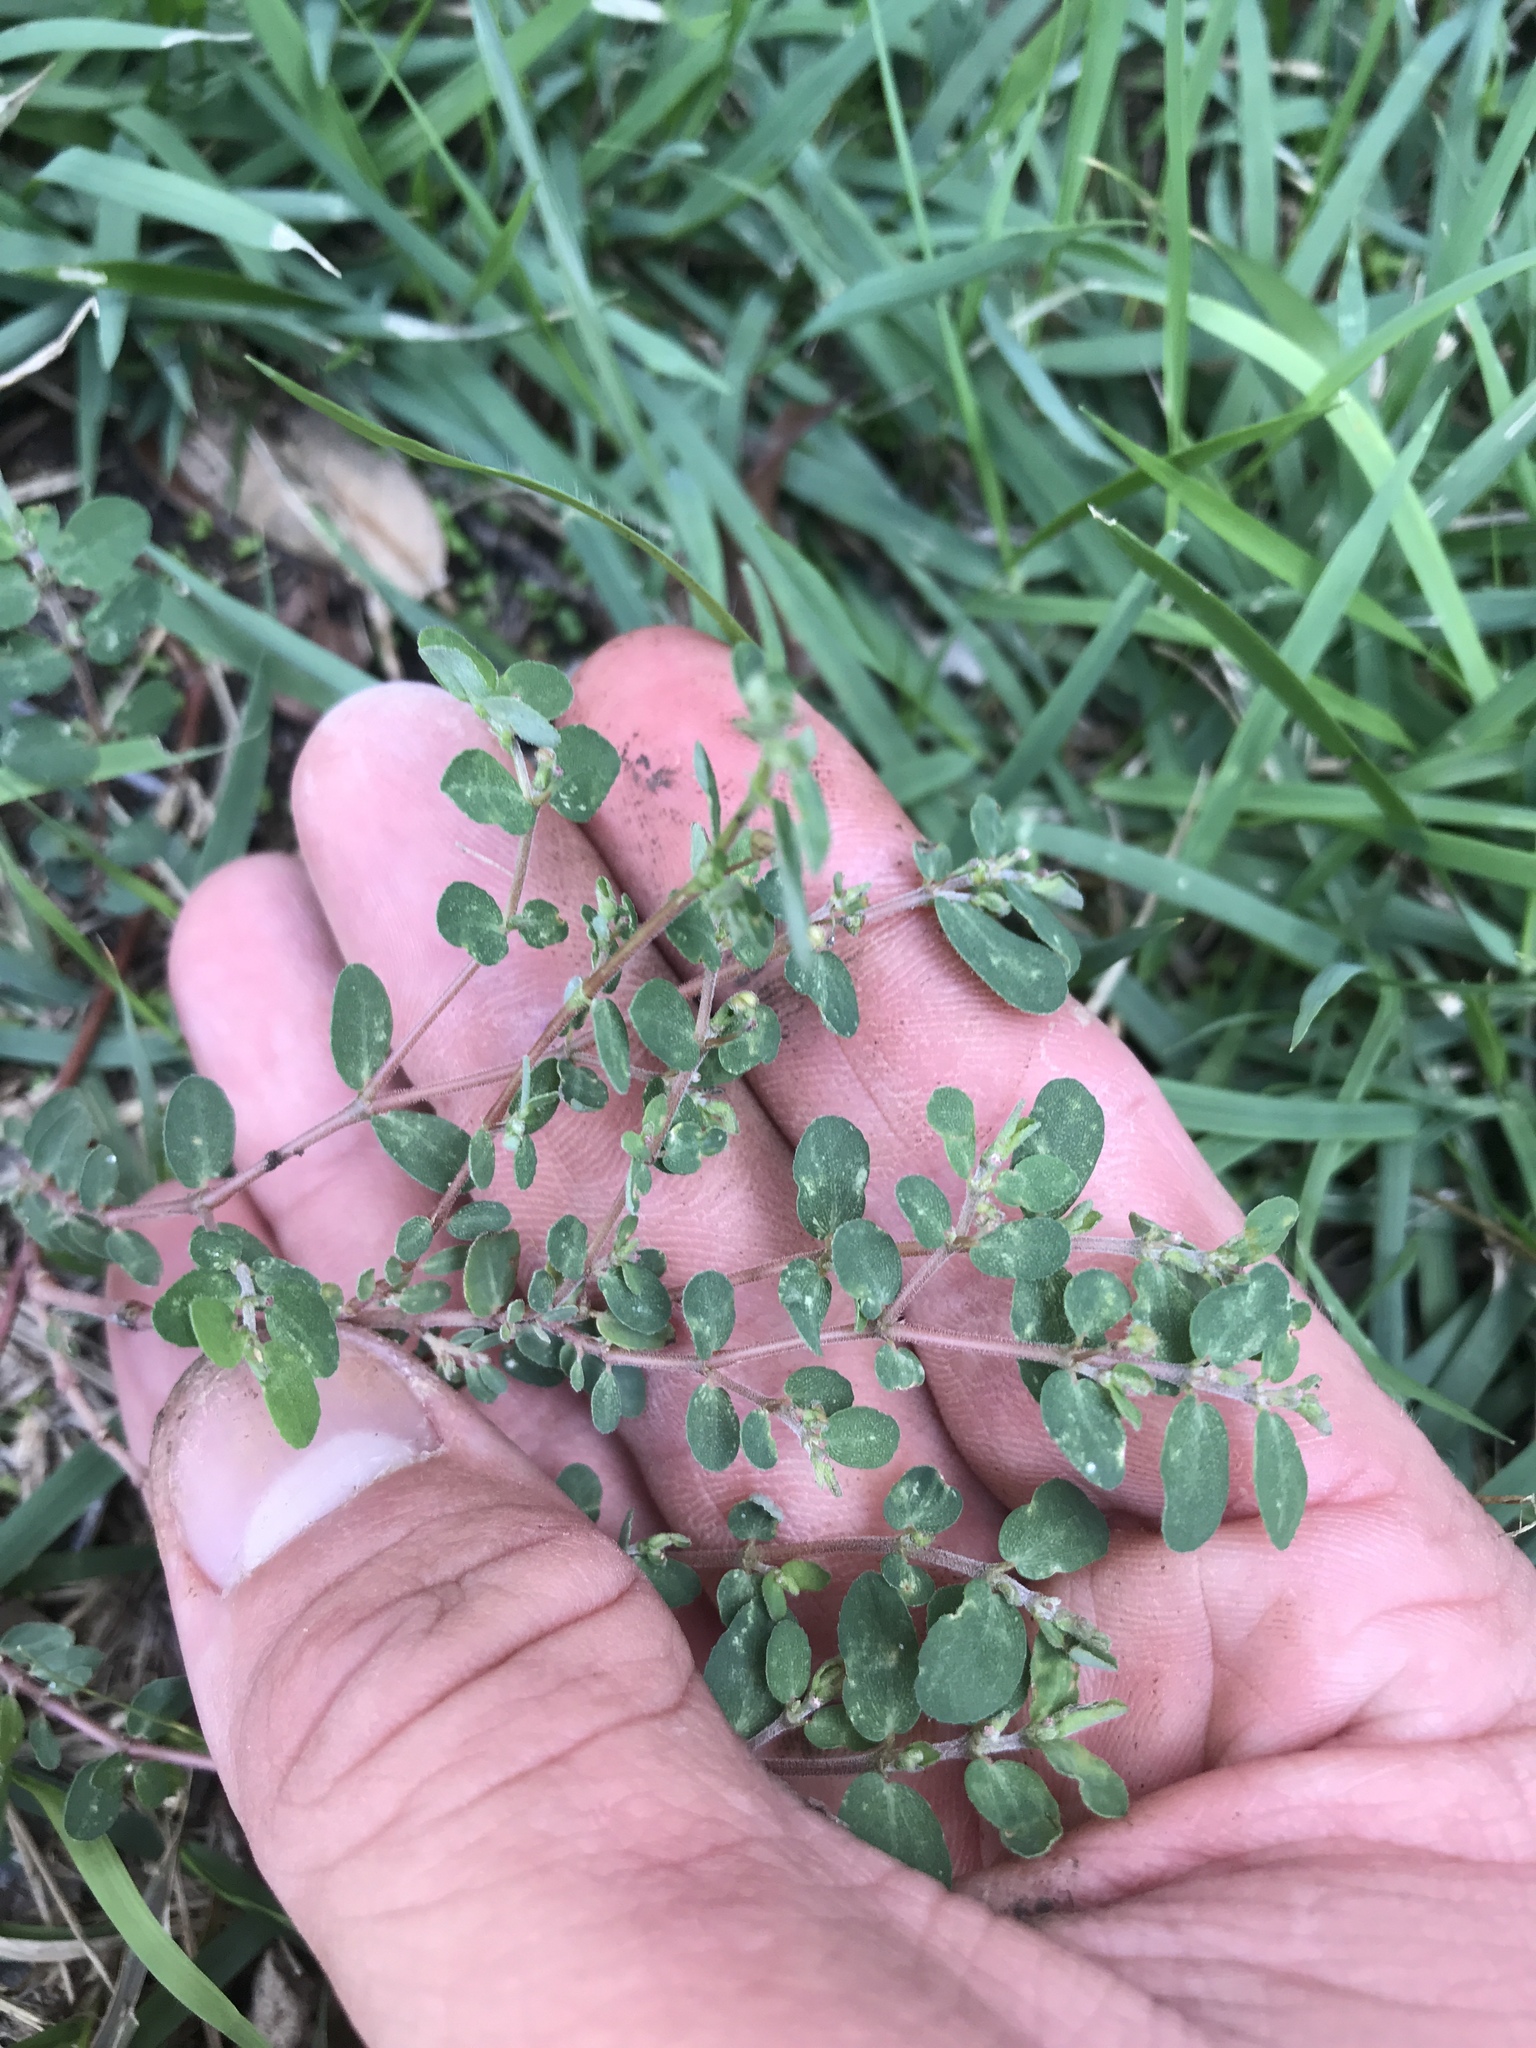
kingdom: Plantae
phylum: Tracheophyta
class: Magnoliopsida
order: Malpighiales
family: Euphorbiaceae
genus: Euphorbia
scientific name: Euphorbia prostrata
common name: Prostrate sandmat
